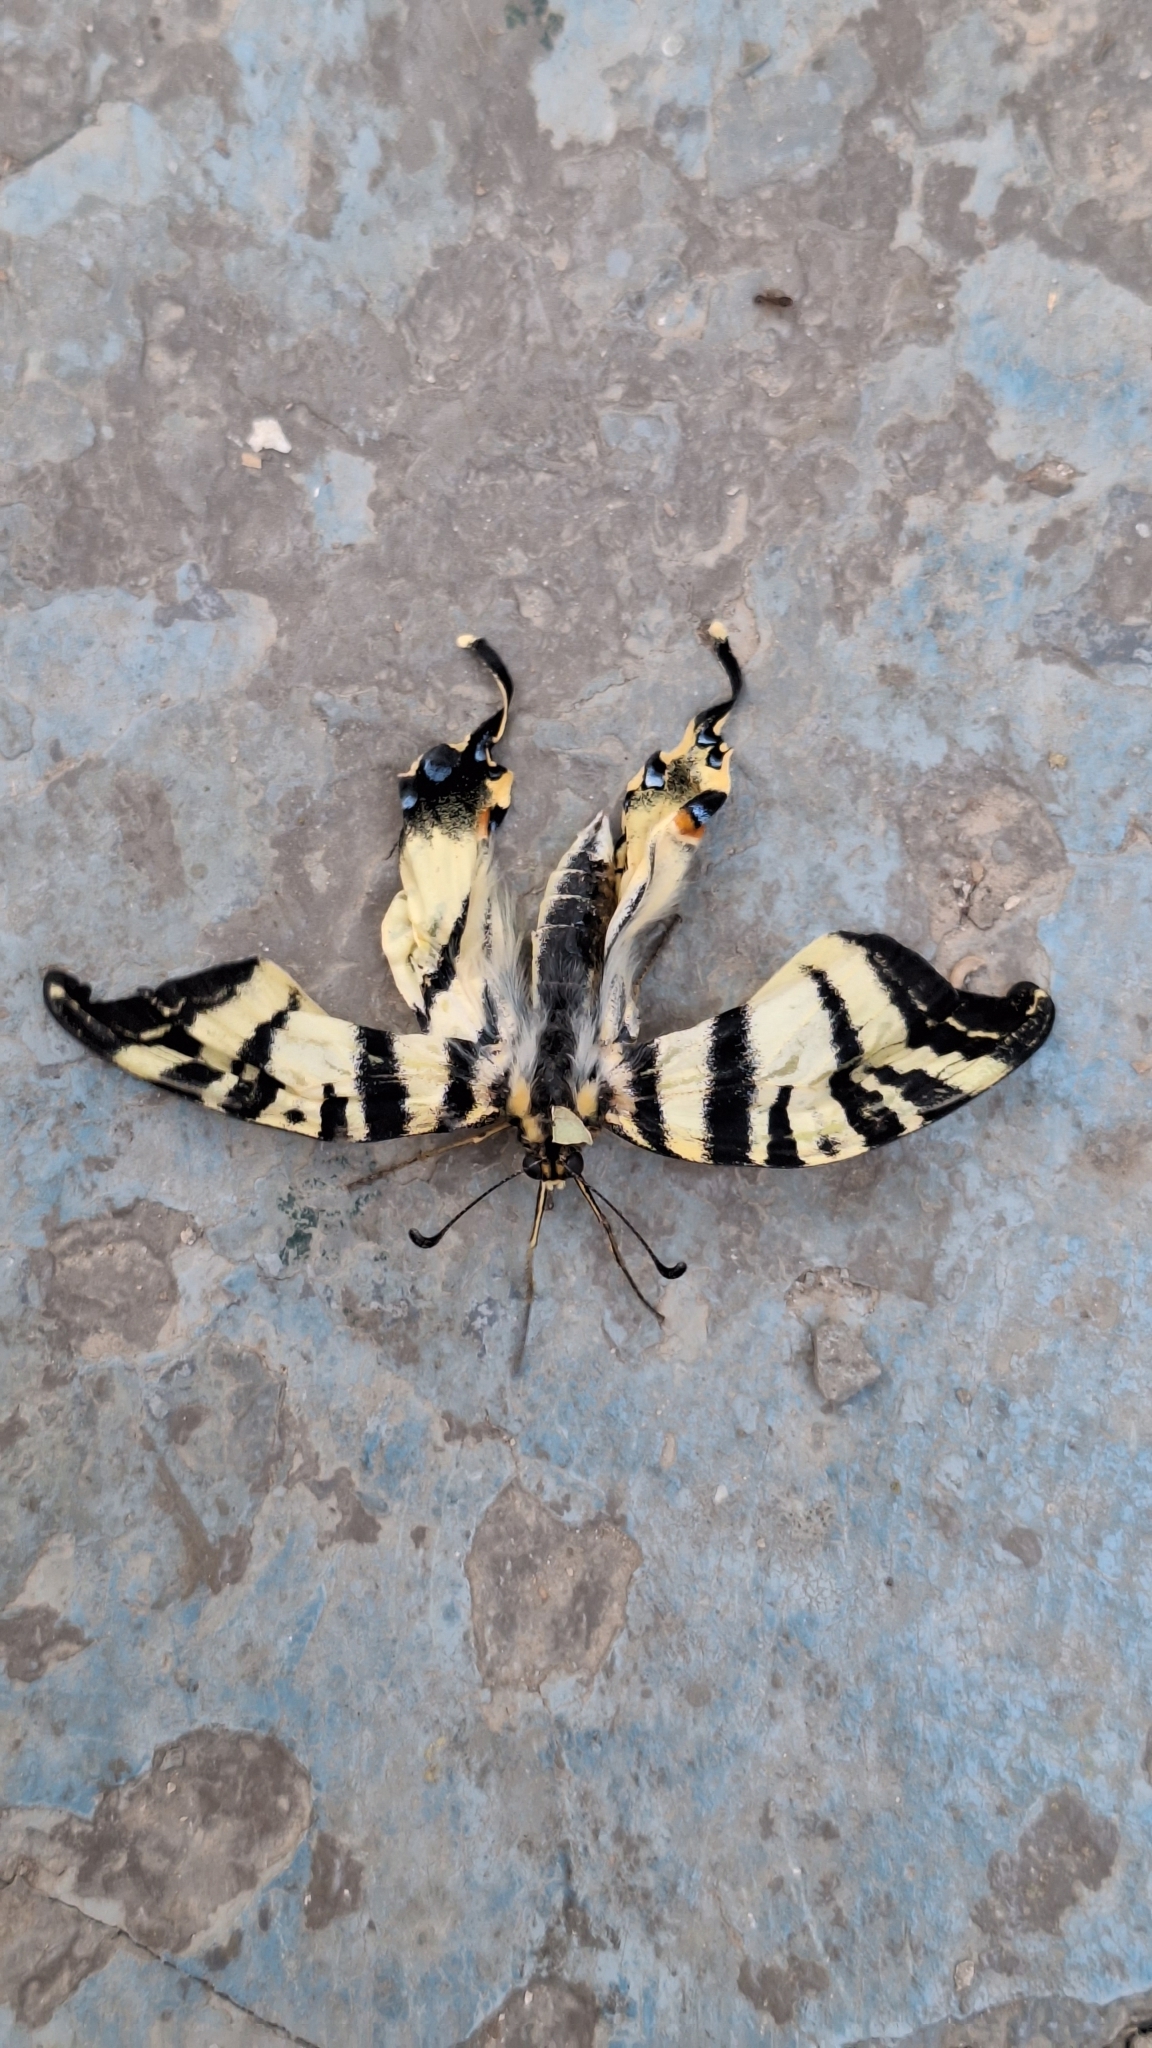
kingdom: Animalia
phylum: Arthropoda
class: Insecta
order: Lepidoptera
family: Papilionidae
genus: Iphiclides
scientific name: Iphiclides podalirius
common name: Scarce swallowtail
